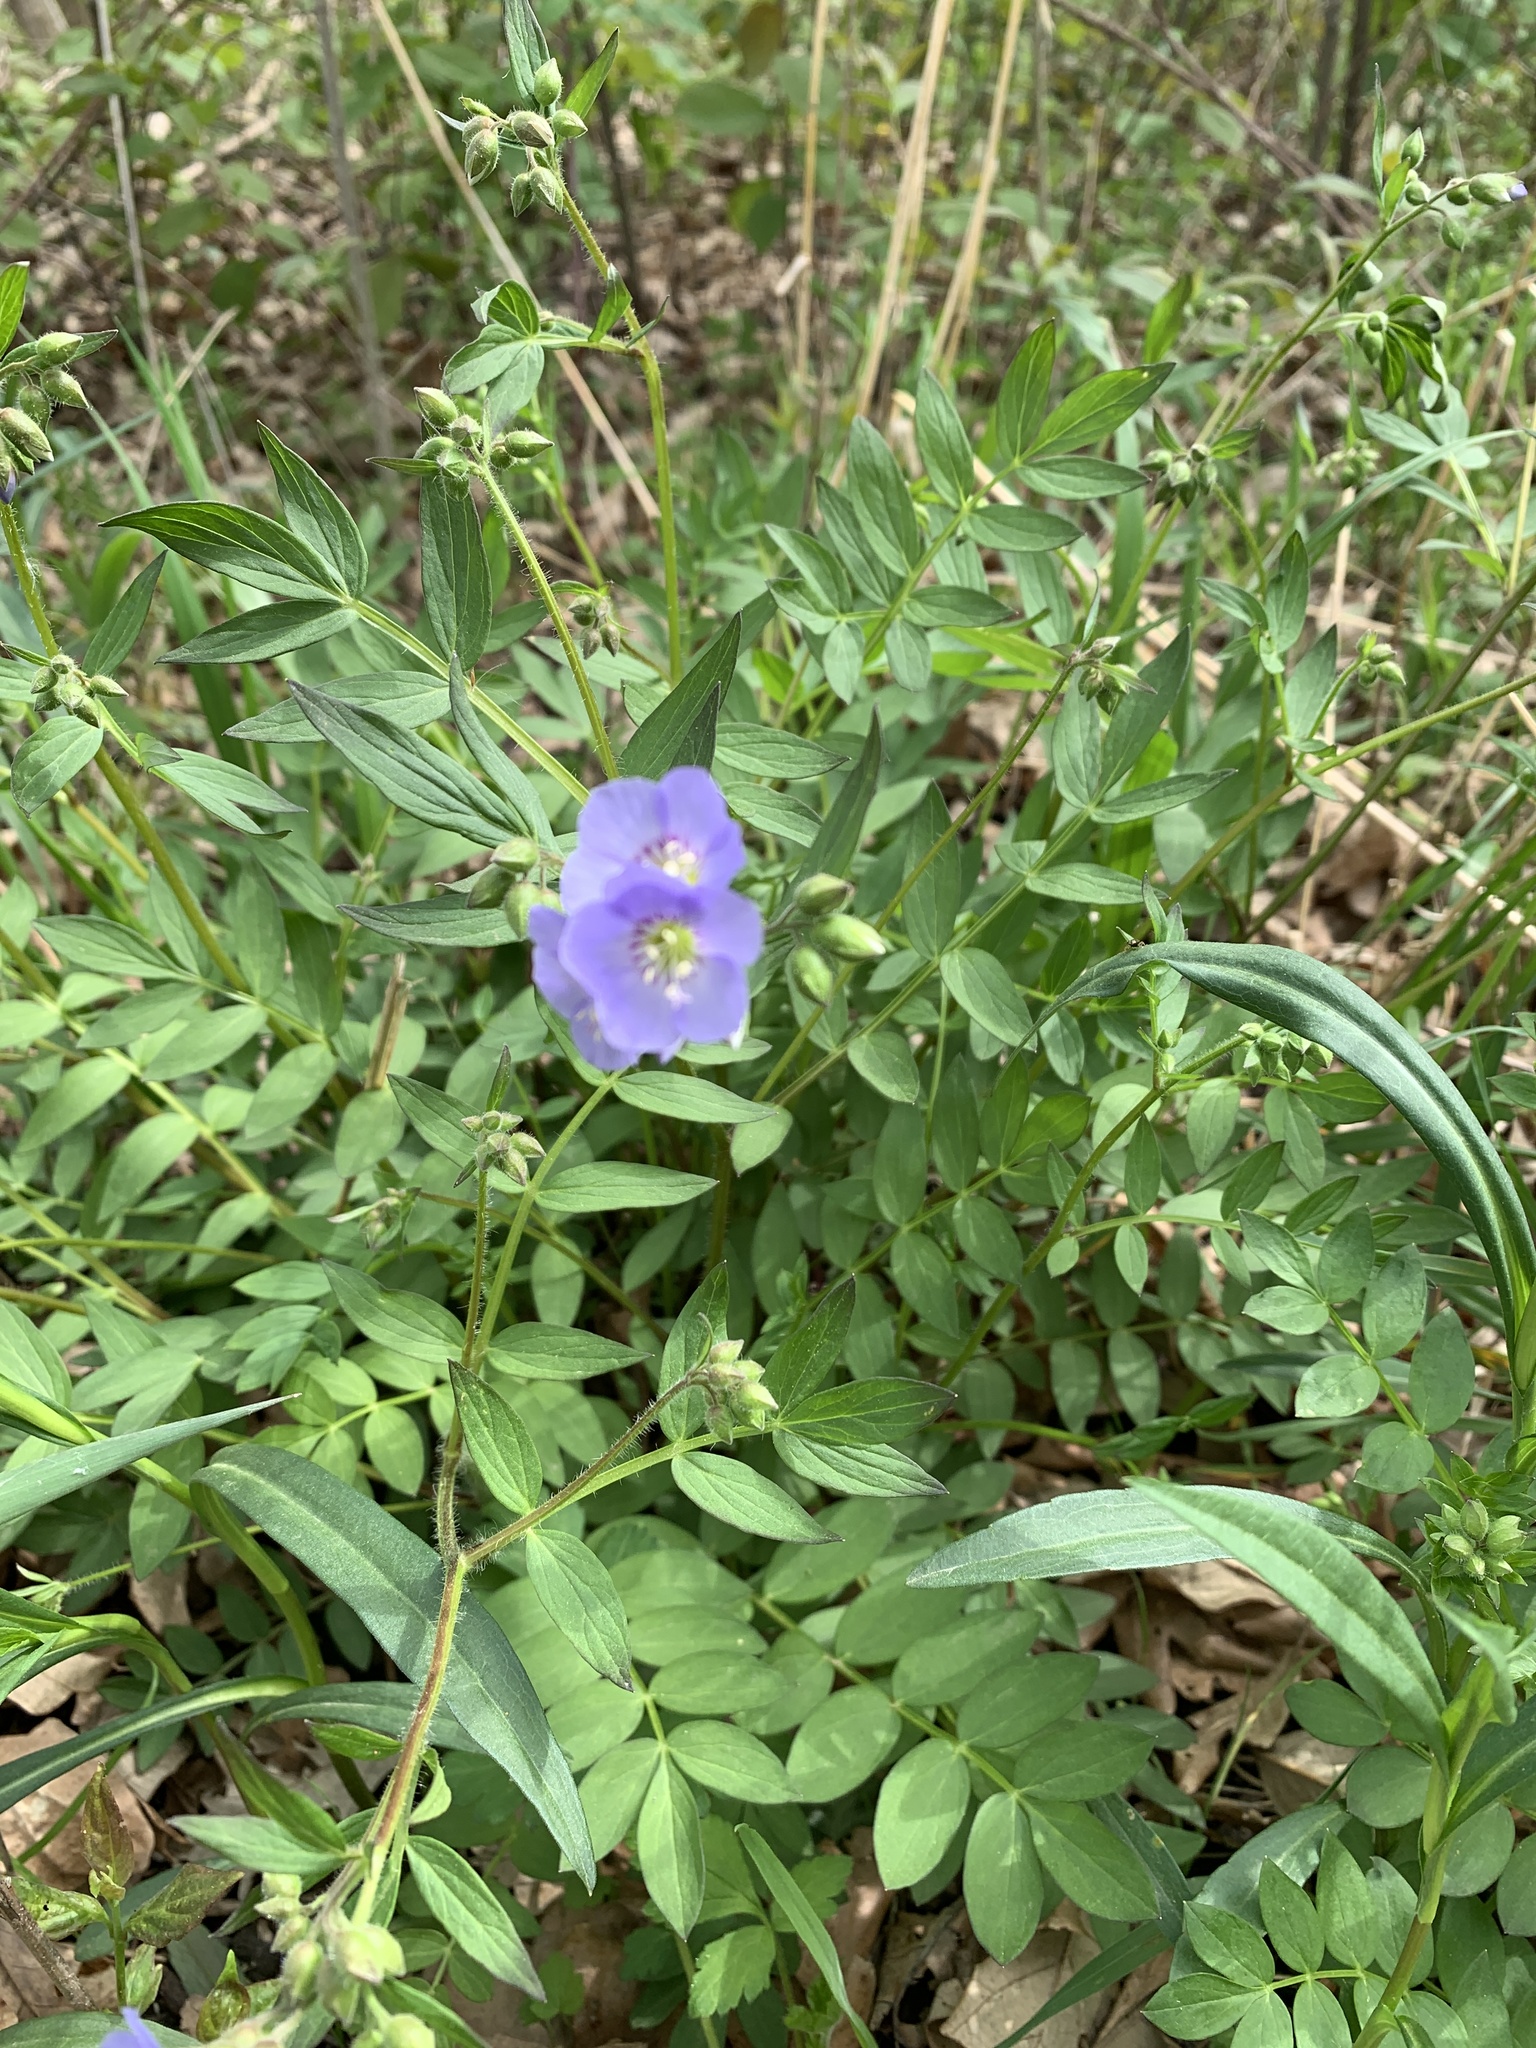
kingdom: Plantae
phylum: Tracheophyta
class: Magnoliopsida
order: Ericales
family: Polemoniaceae
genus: Polemonium
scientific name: Polemonium reptans
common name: Creeping jacob's-ladder
